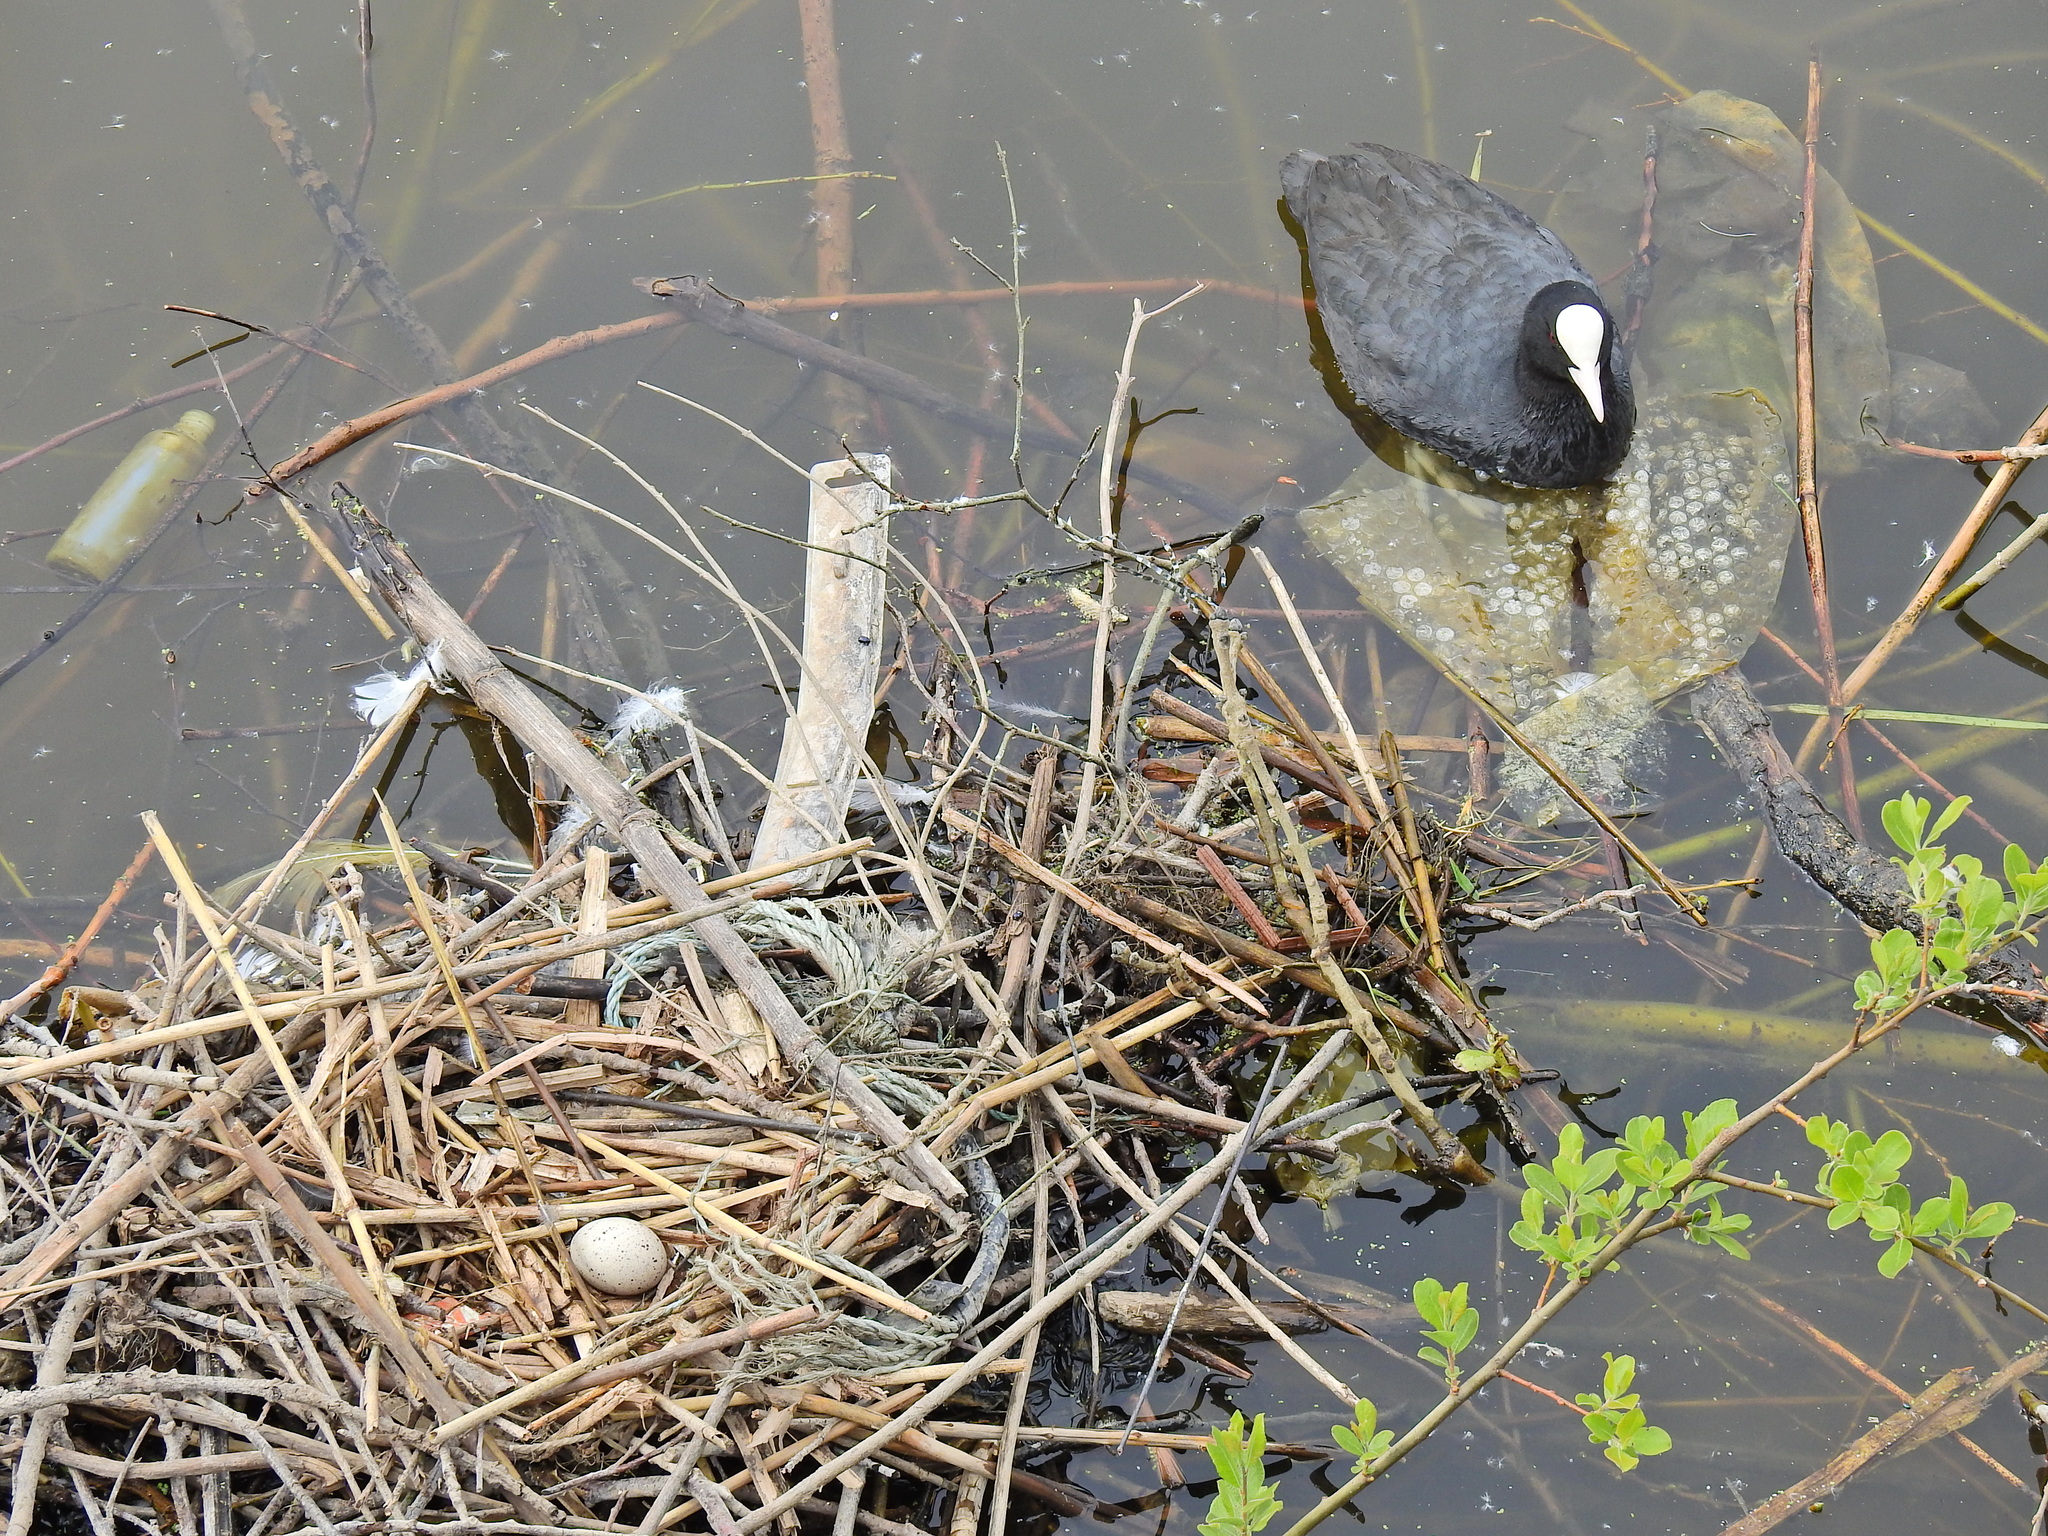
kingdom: Animalia
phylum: Chordata
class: Aves
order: Gruiformes
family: Rallidae
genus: Fulica
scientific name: Fulica atra
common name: Eurasian coot
